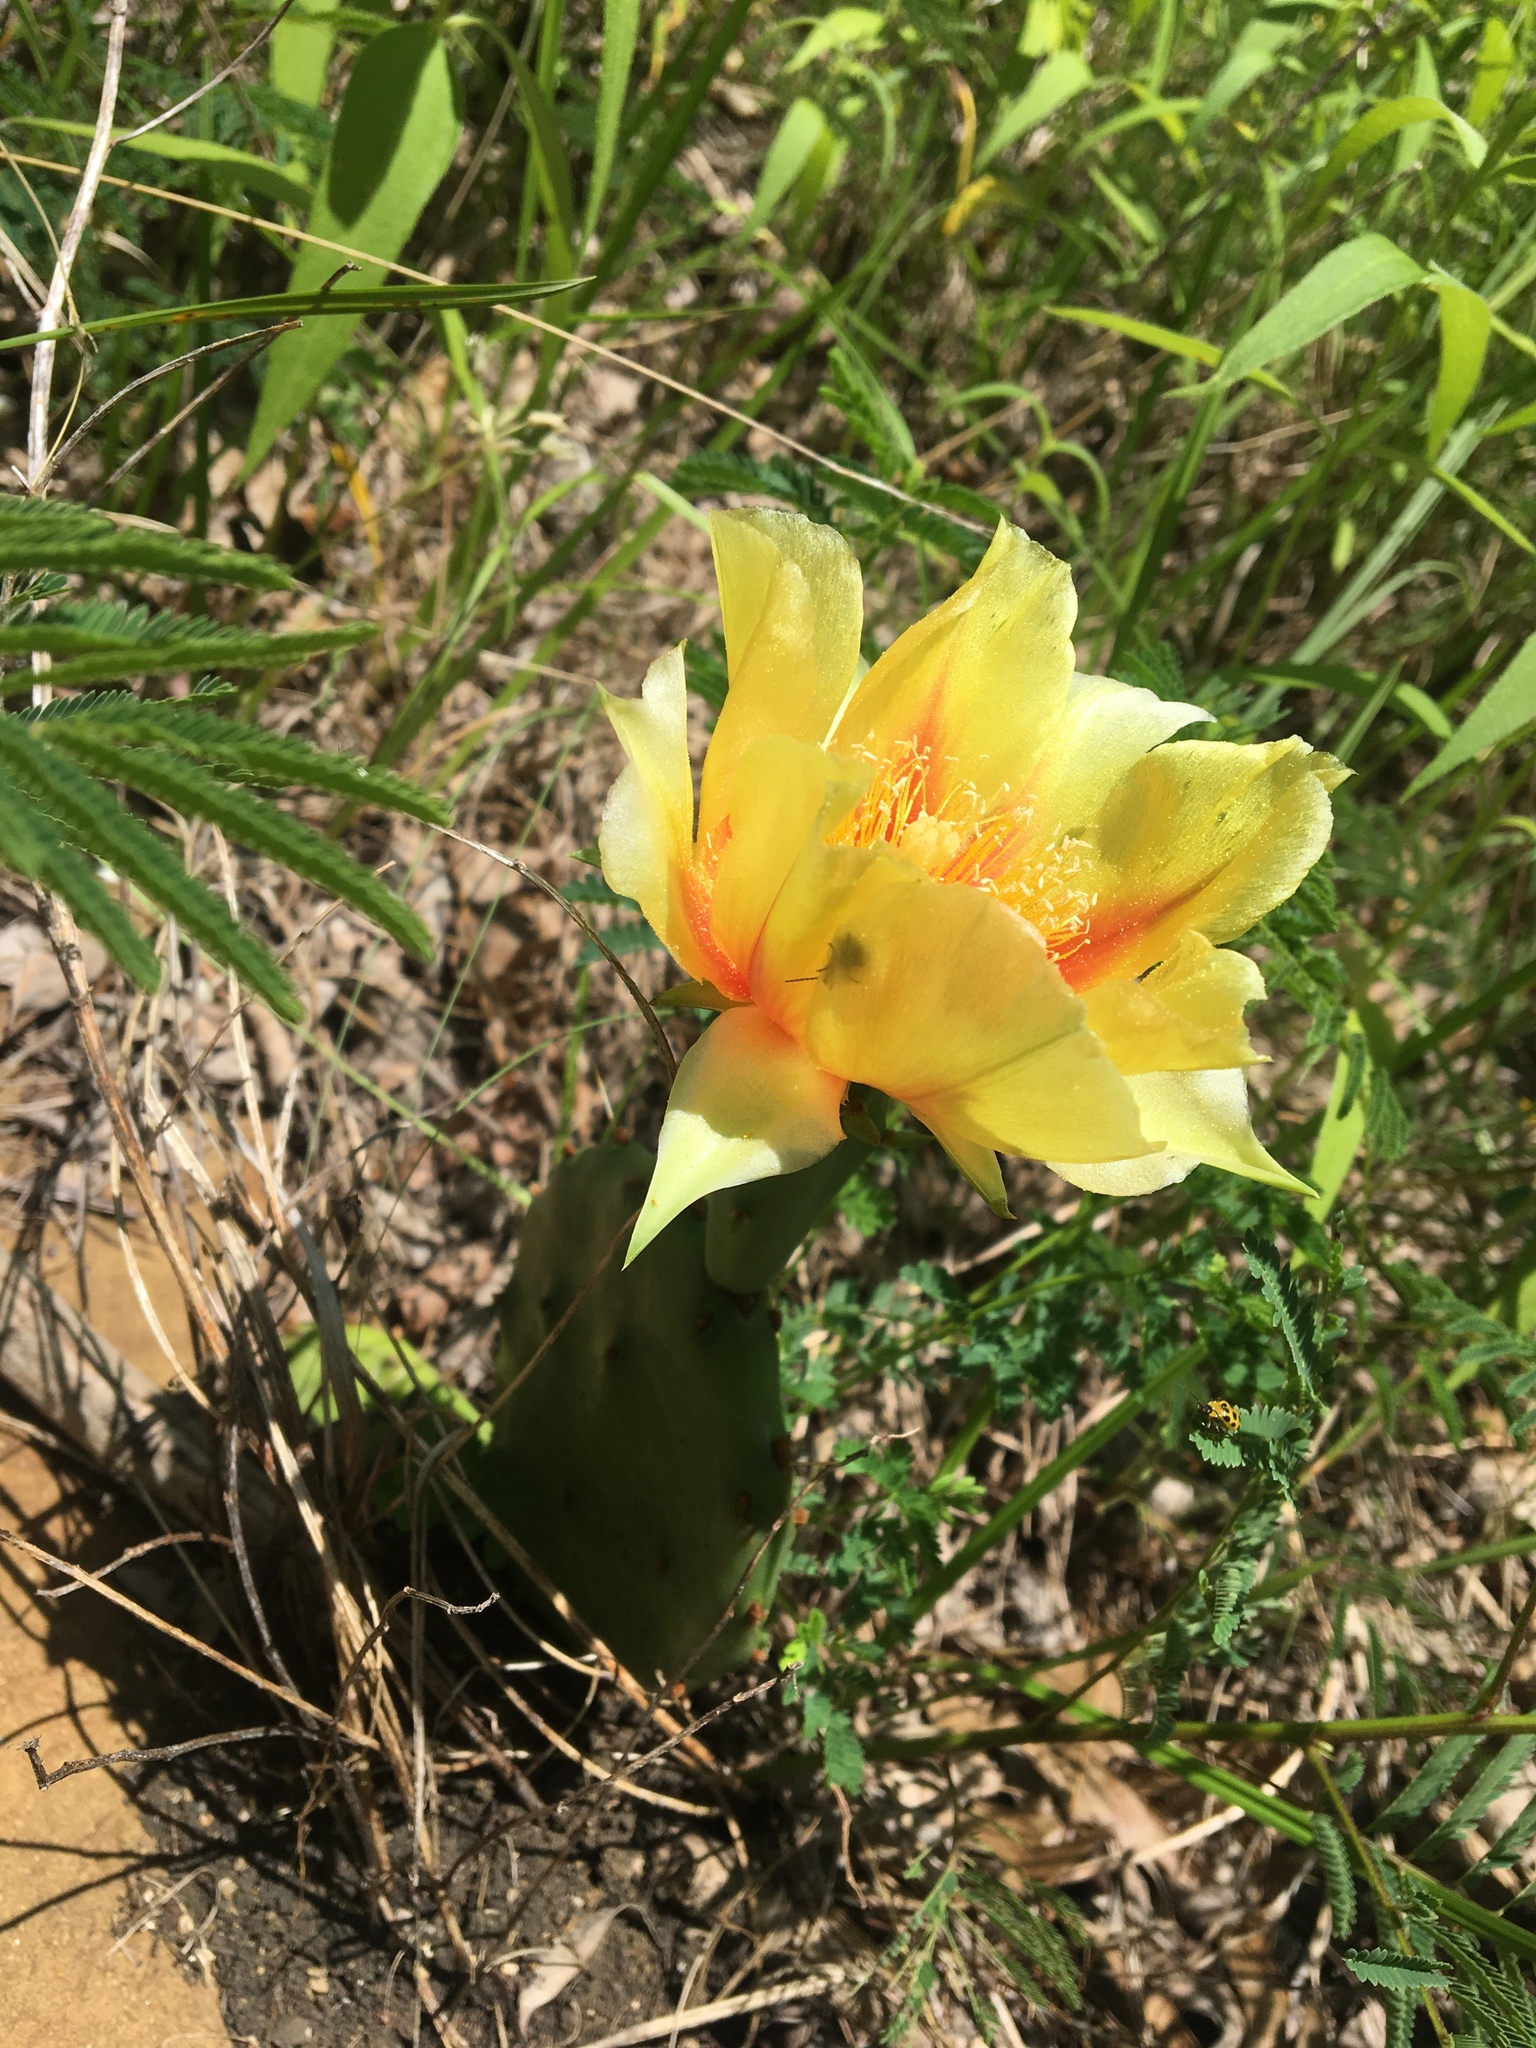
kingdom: Plantae
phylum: Tracheophyta
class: Magnoliopsida
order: Caryophyllales
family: Cactaceae
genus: Opuntia
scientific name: Opuntia macrorhiza
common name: Grassland pricklypear
